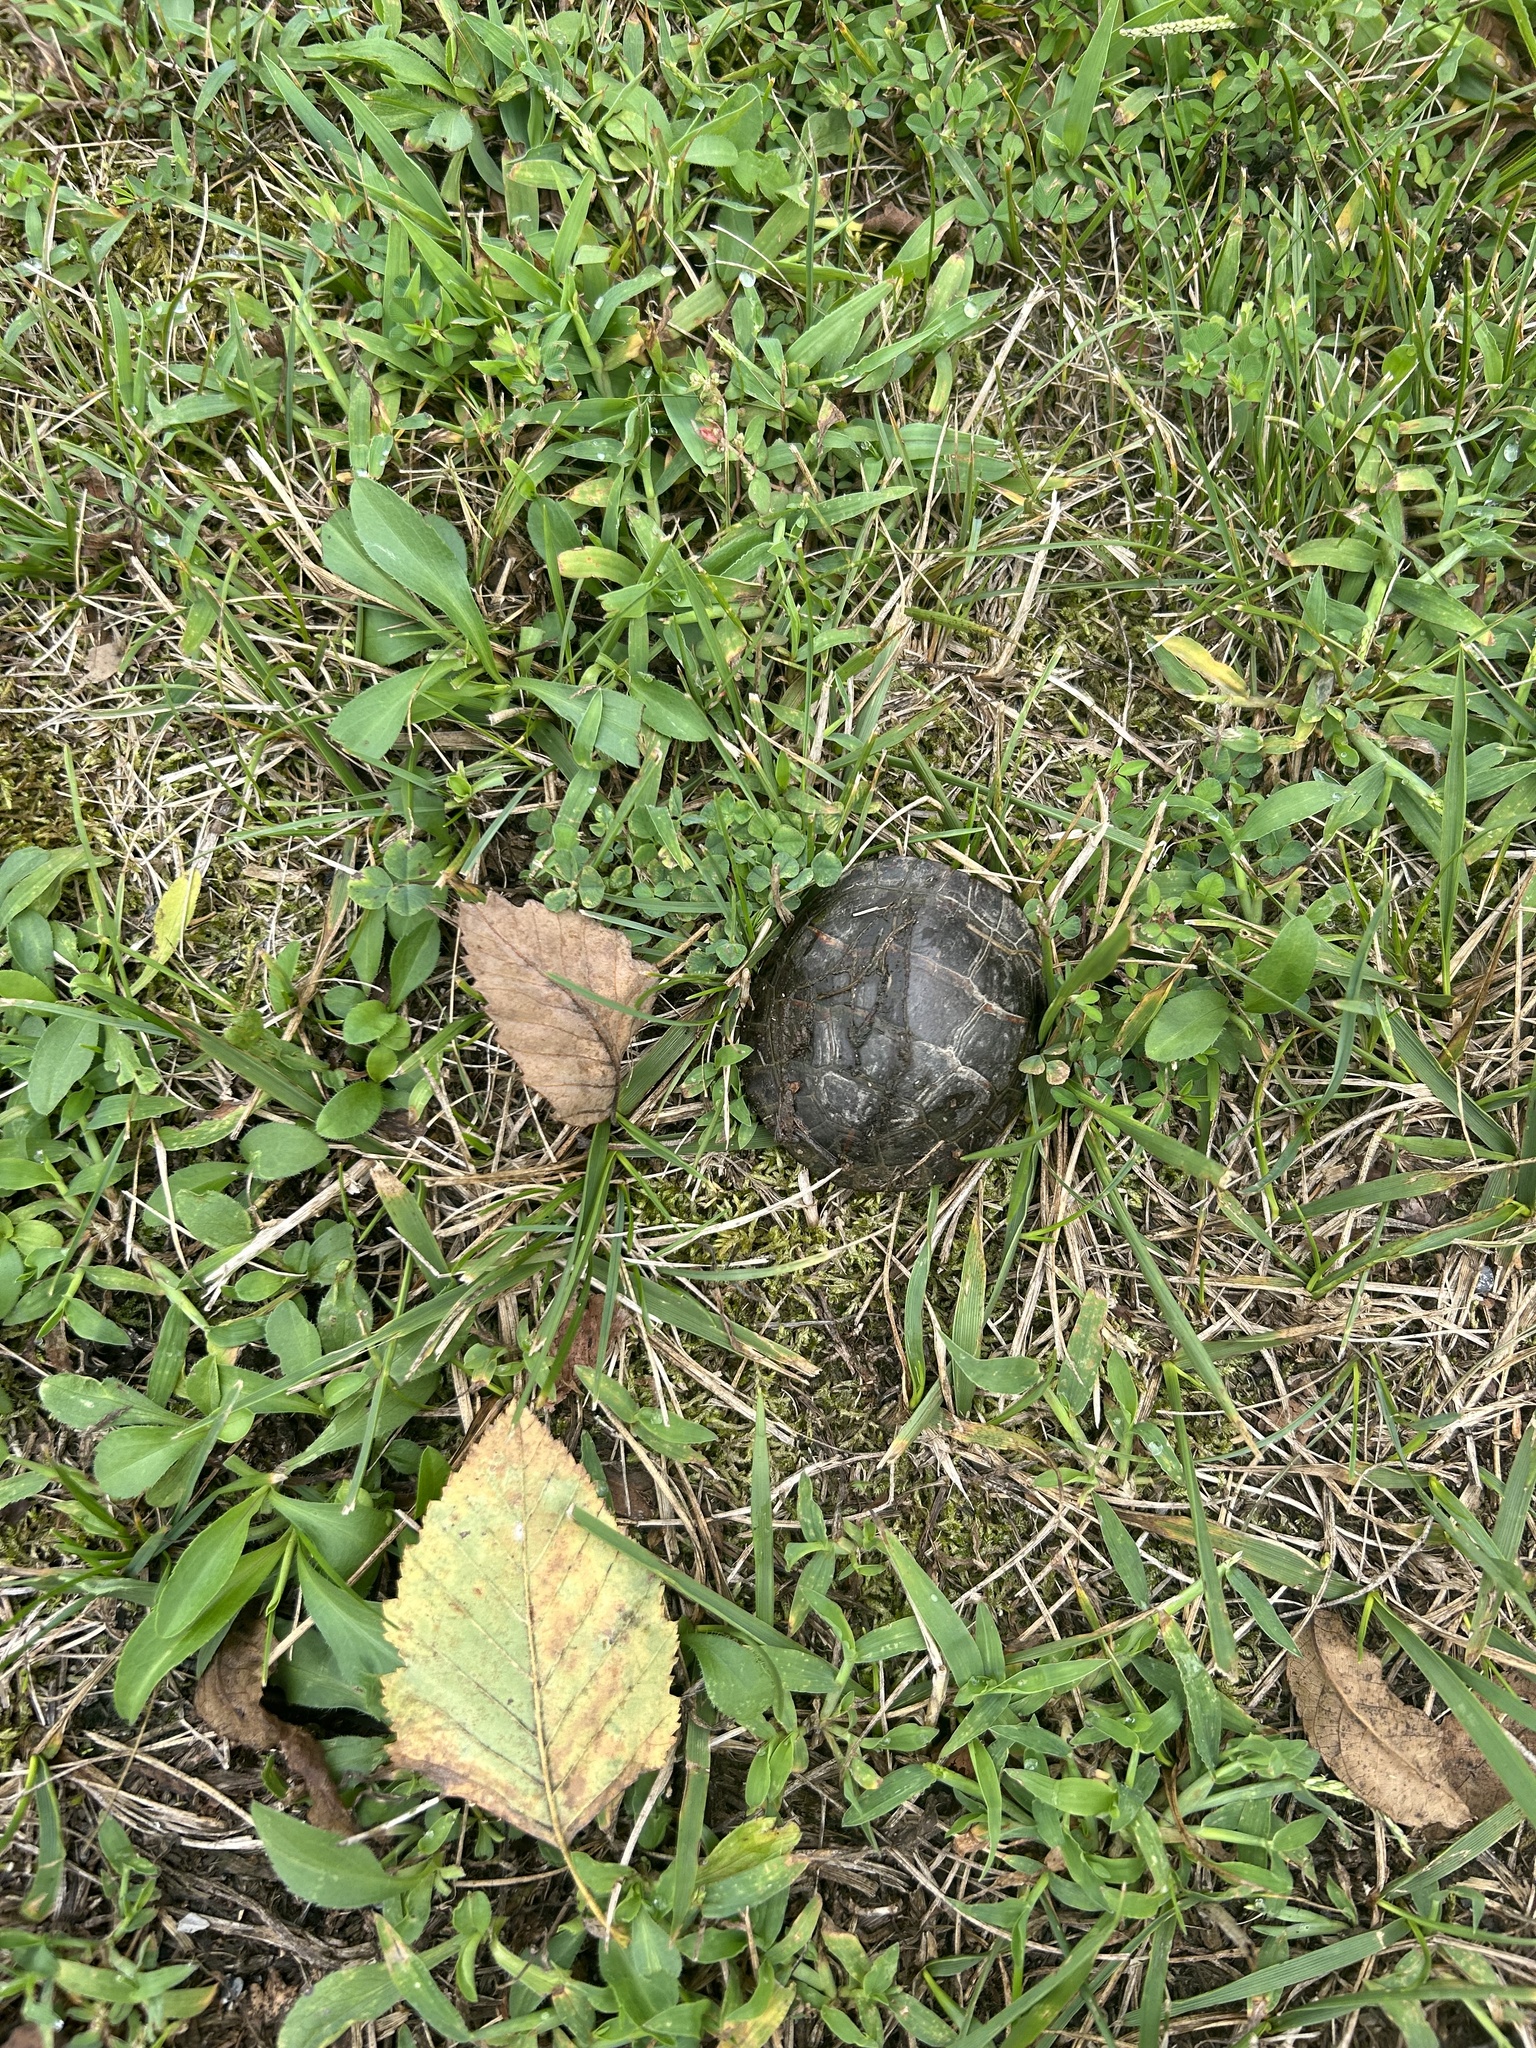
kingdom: Animalia
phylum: Chordata
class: Testudines
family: Emydidae
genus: Chrysemys
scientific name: Chrysemys picta
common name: Painted turtle
